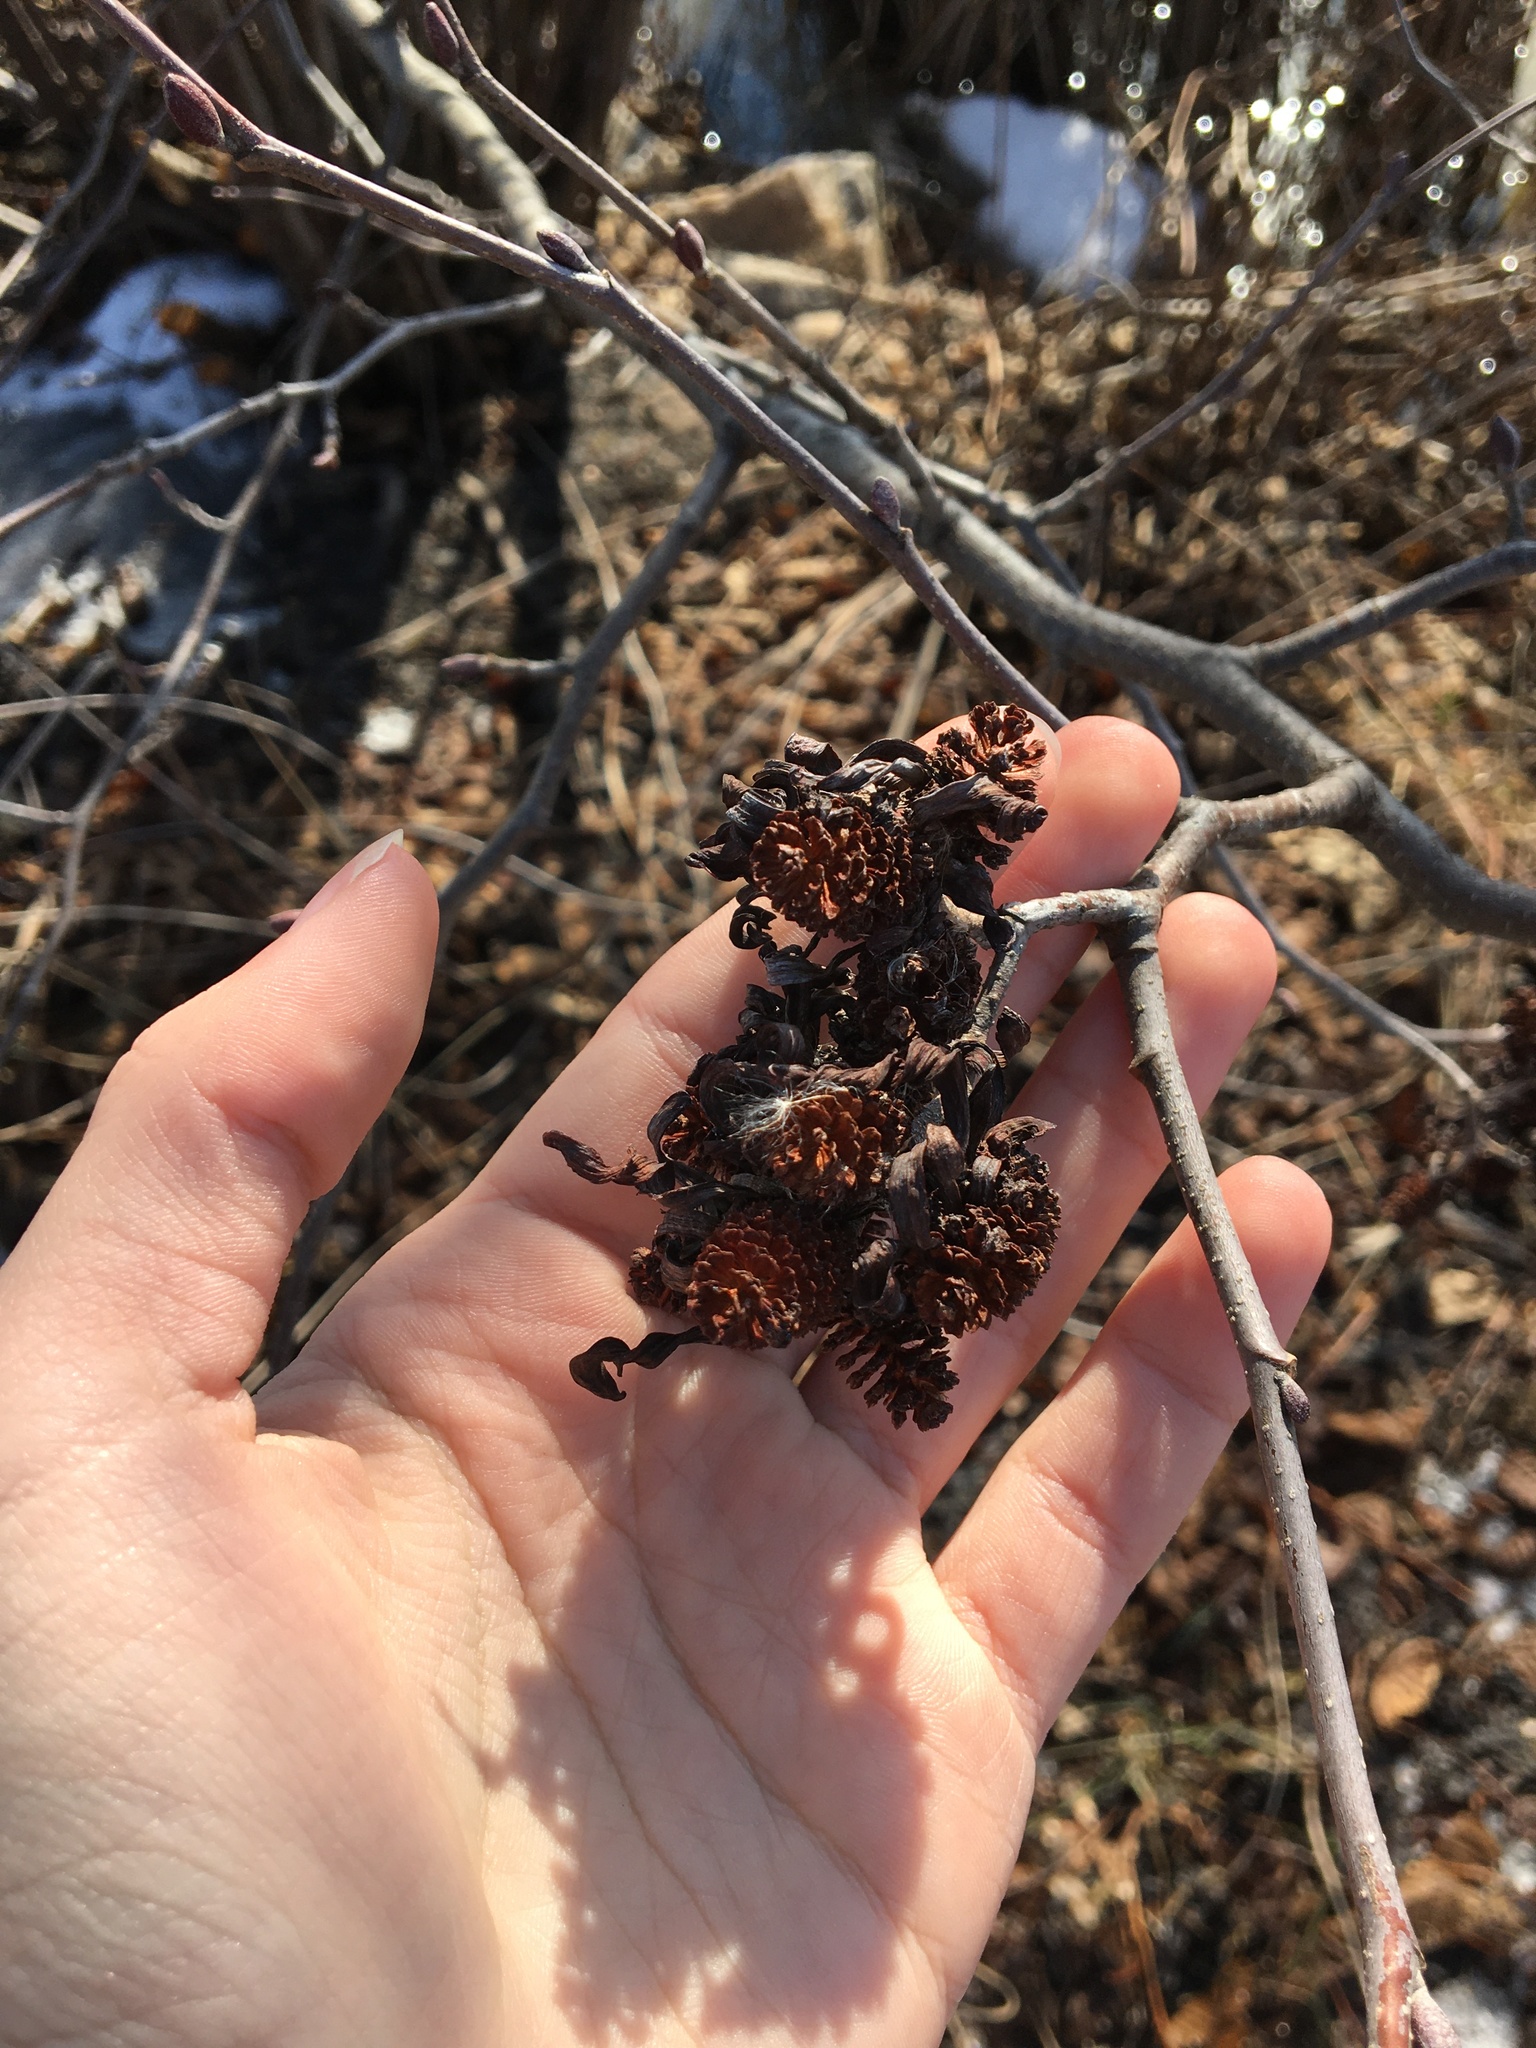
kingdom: Fungi
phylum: Ascomycota
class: Taphrinomycetes
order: Taphrinales
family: Taphrinaceae
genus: Taphrina
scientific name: Taphrina robinsoniana
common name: Eastern american alder tongue gall fungus
